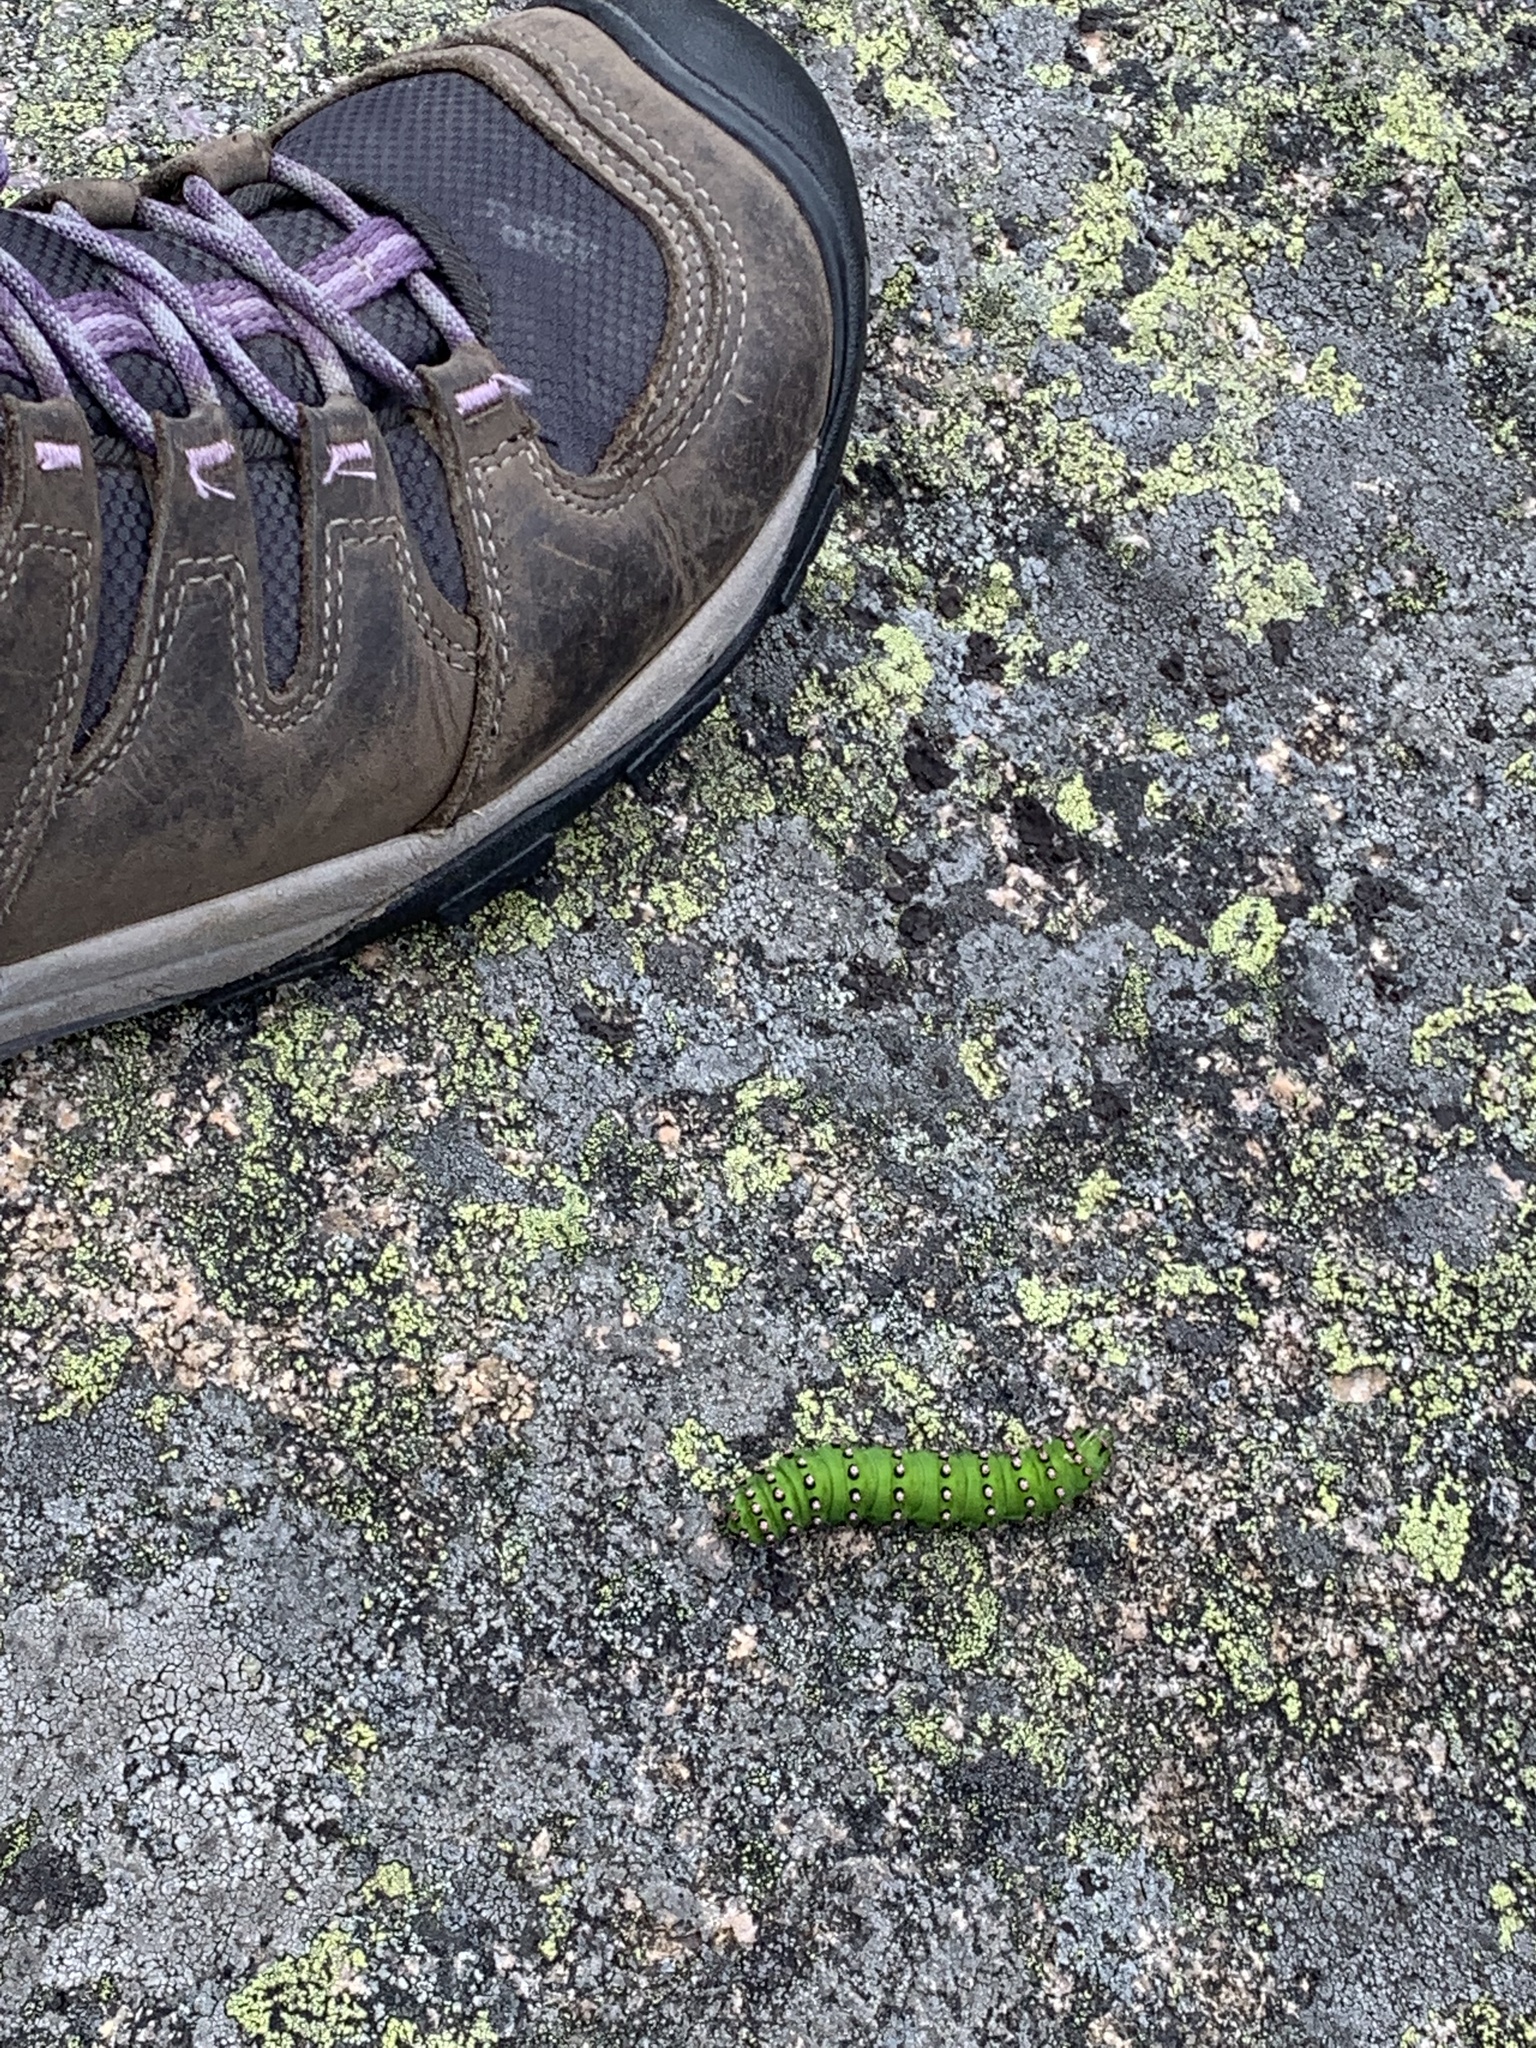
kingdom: Animalia
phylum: Arthropoda
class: Insecta
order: Lepidoptera
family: Saturniidae
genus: Saturnia
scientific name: Saturnia pavonia
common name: Emperor moth
